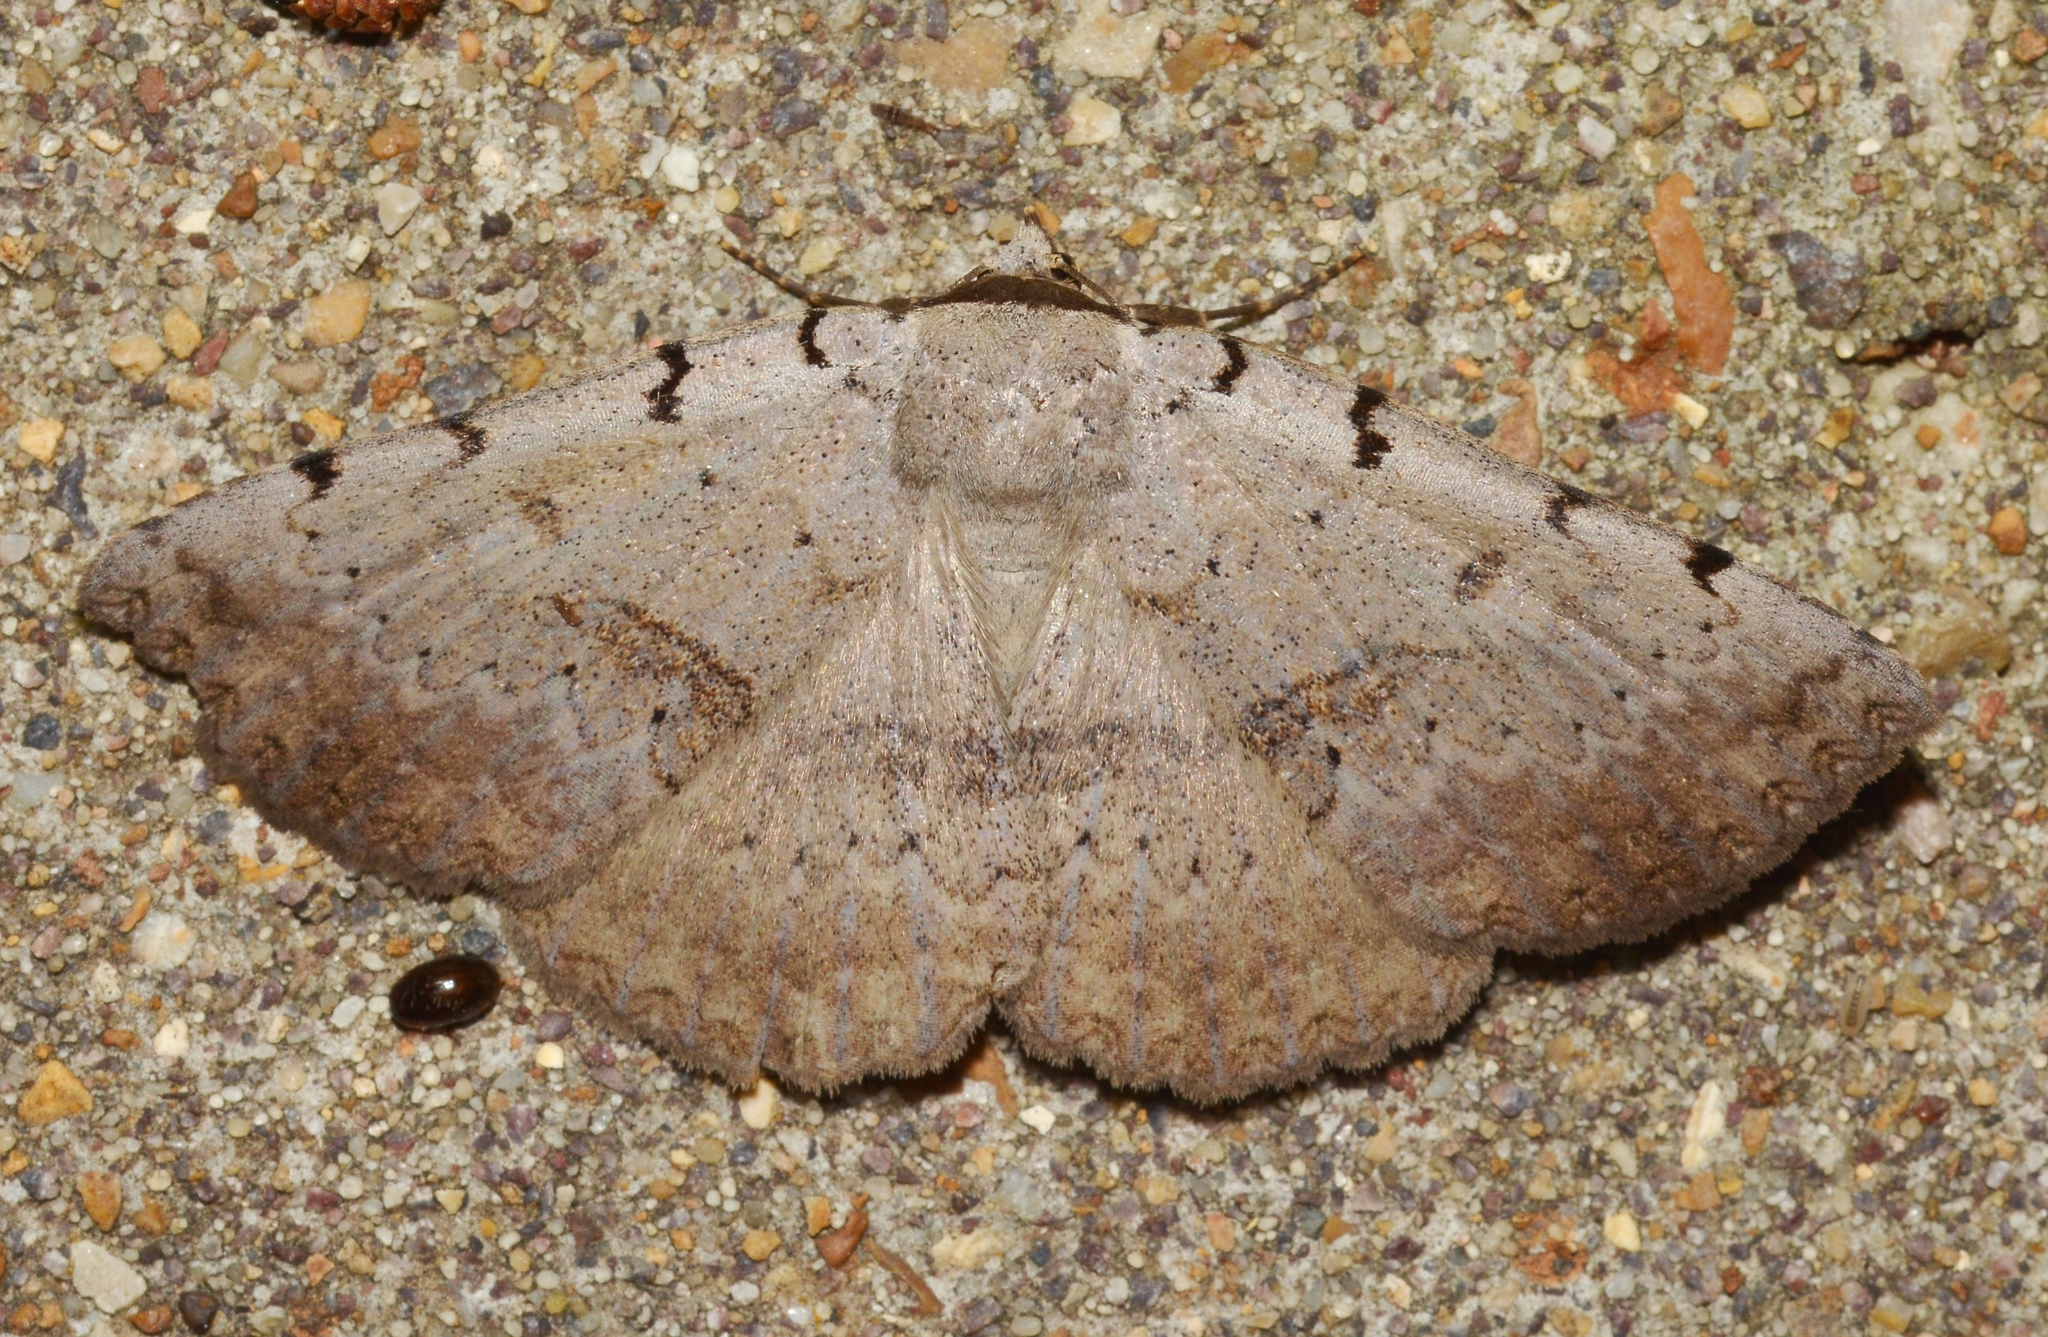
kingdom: Animalia
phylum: Arthropoda
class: Insecta
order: Lepidoptera
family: Erebidae
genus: Spiloloma
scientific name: Spiloloma lunilinea
